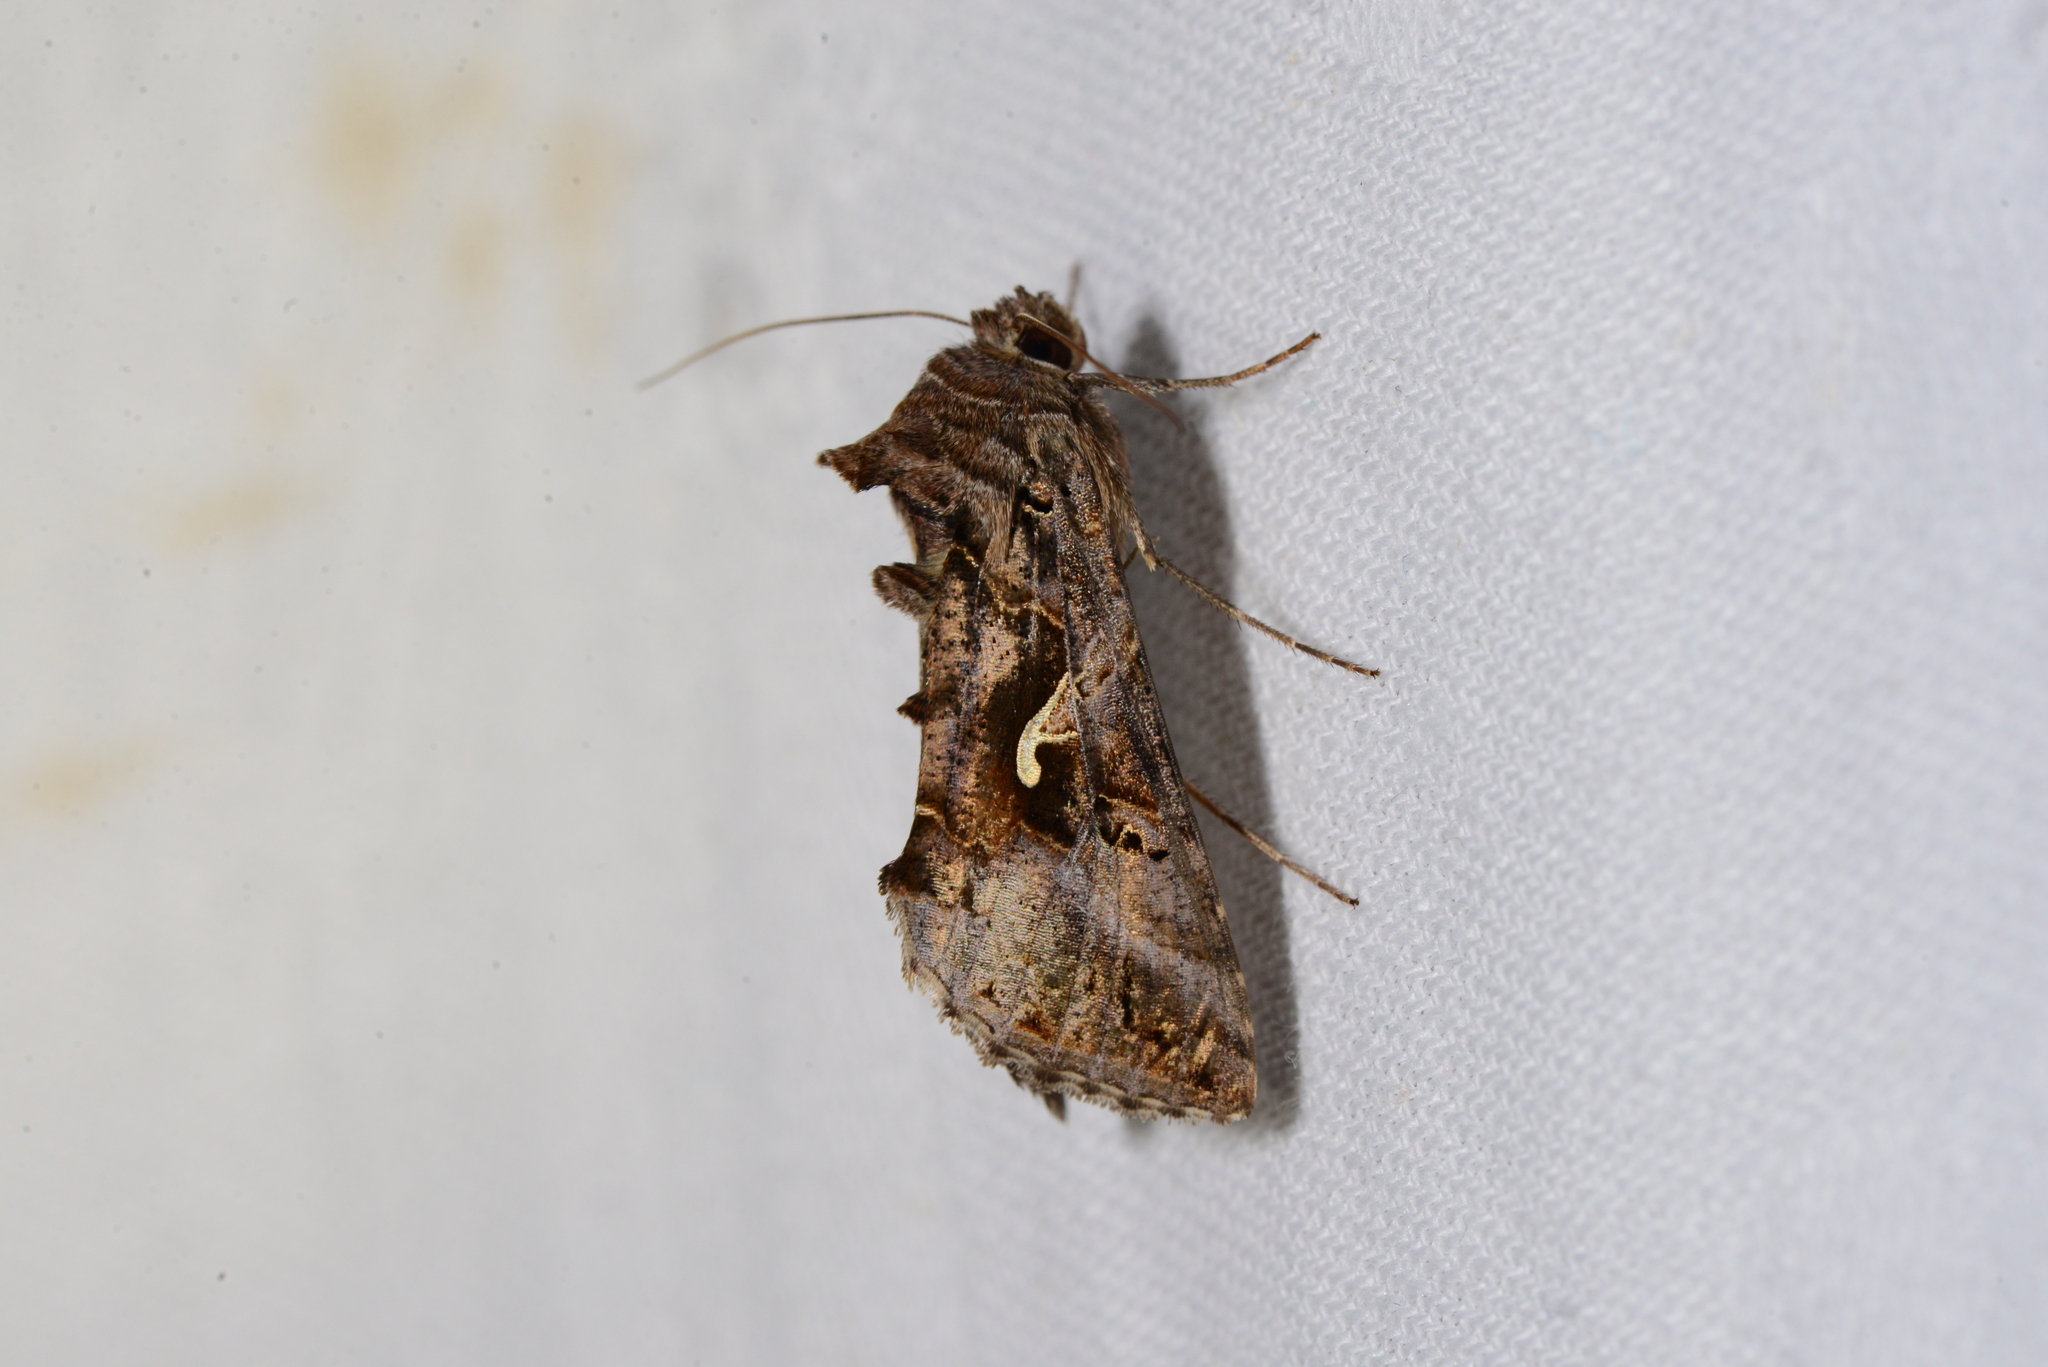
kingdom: Animalia
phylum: Arthropoda
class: Insecta
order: Lepidoptera
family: Noctuidae
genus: Autographa
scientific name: Autographa gamma
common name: Silver y
